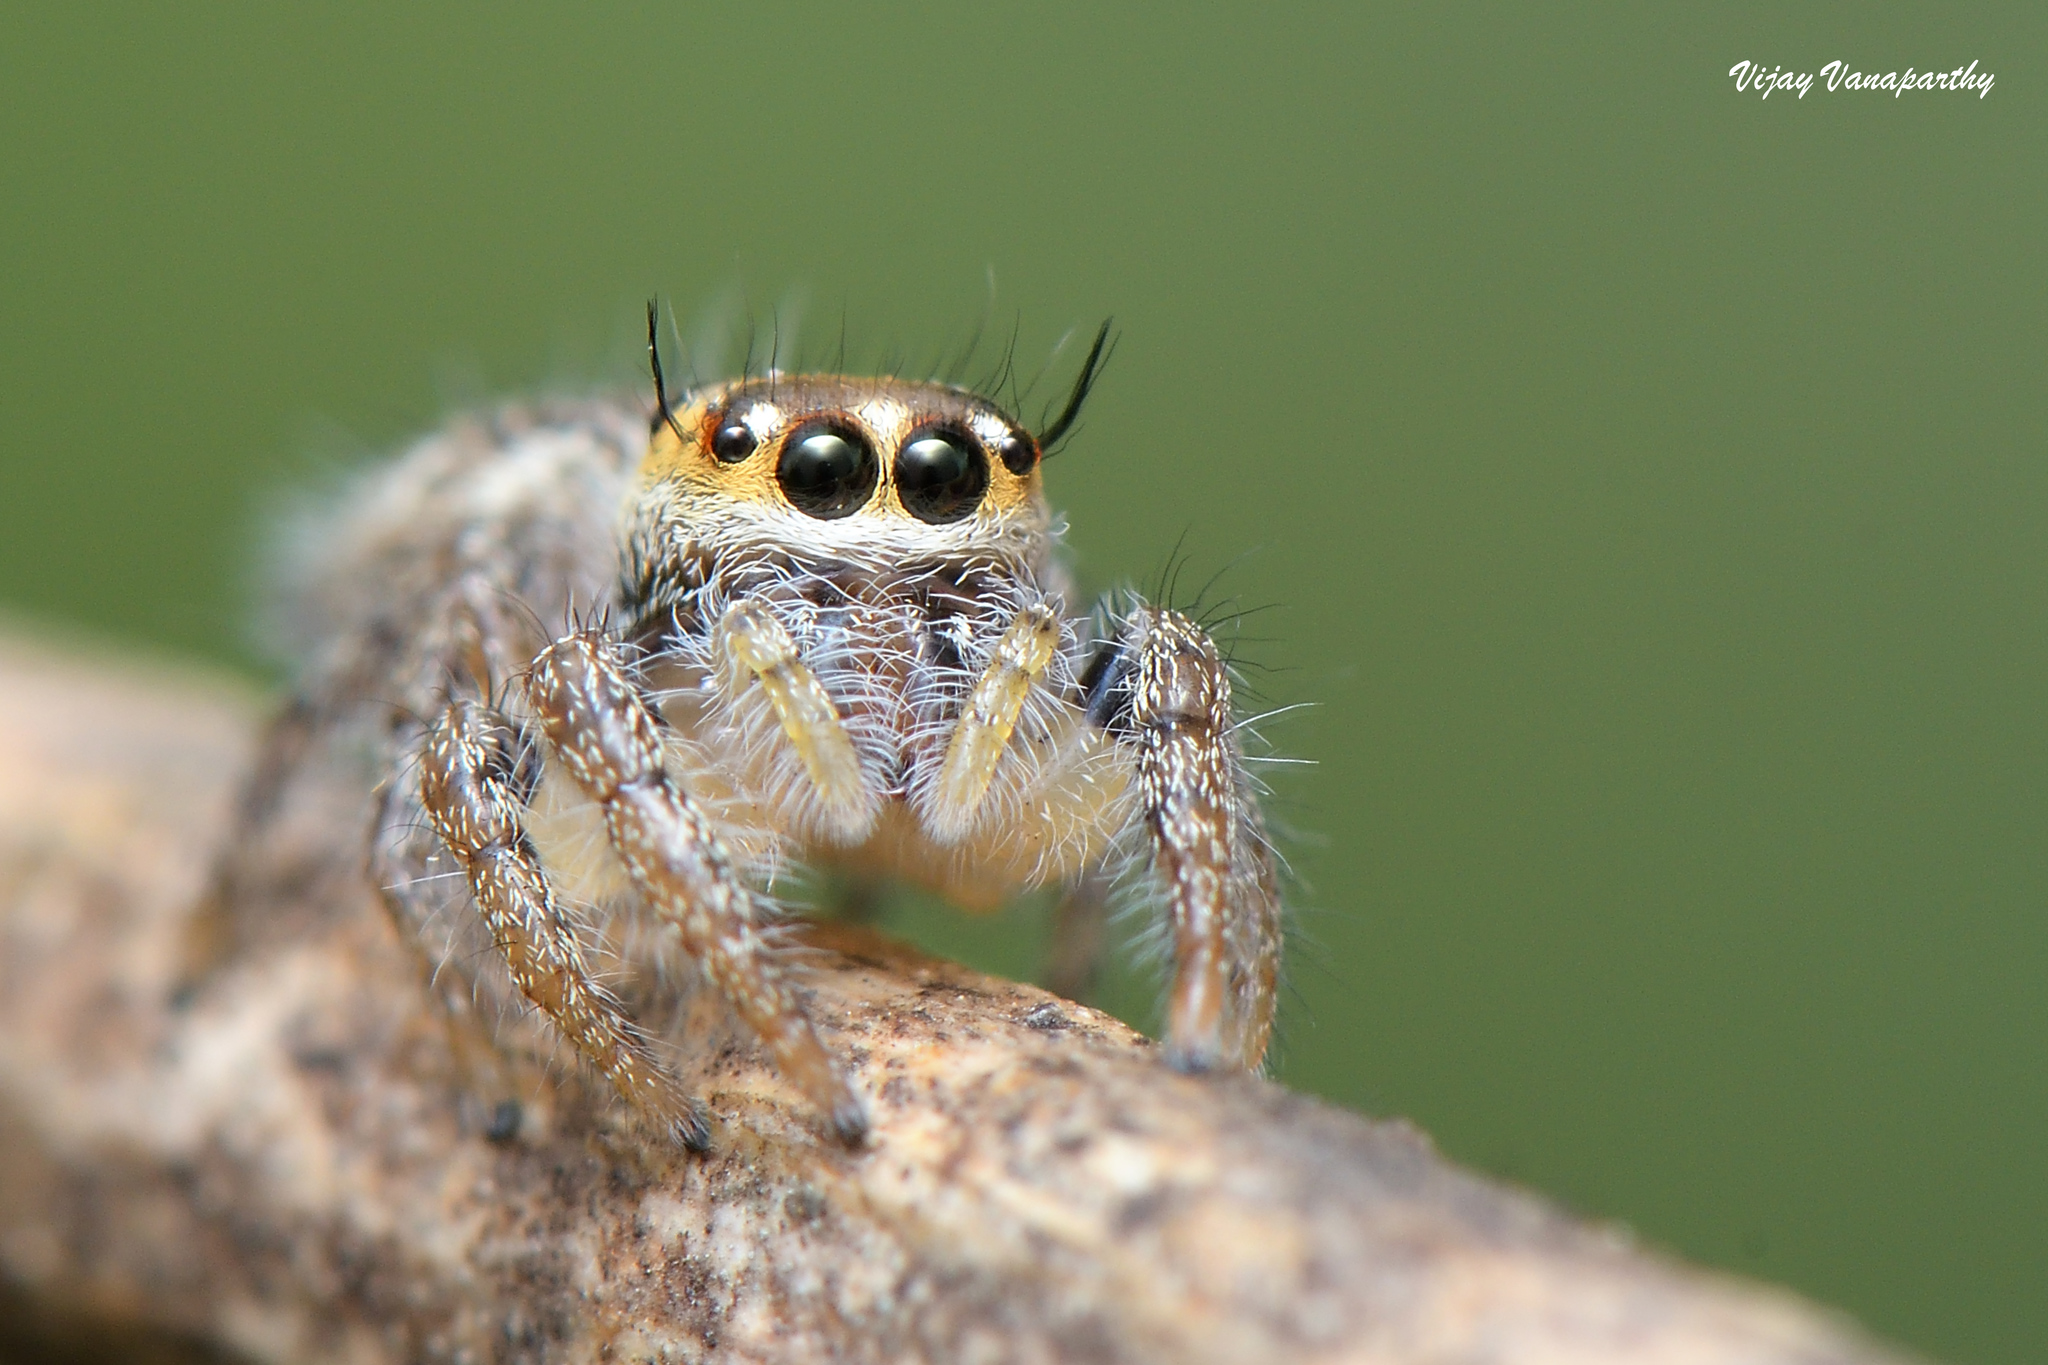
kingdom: Animalia
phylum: Arthropoda
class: Arachnida
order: Araneae
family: Salticidae
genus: Hyllus
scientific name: Hyllus semicupreus
